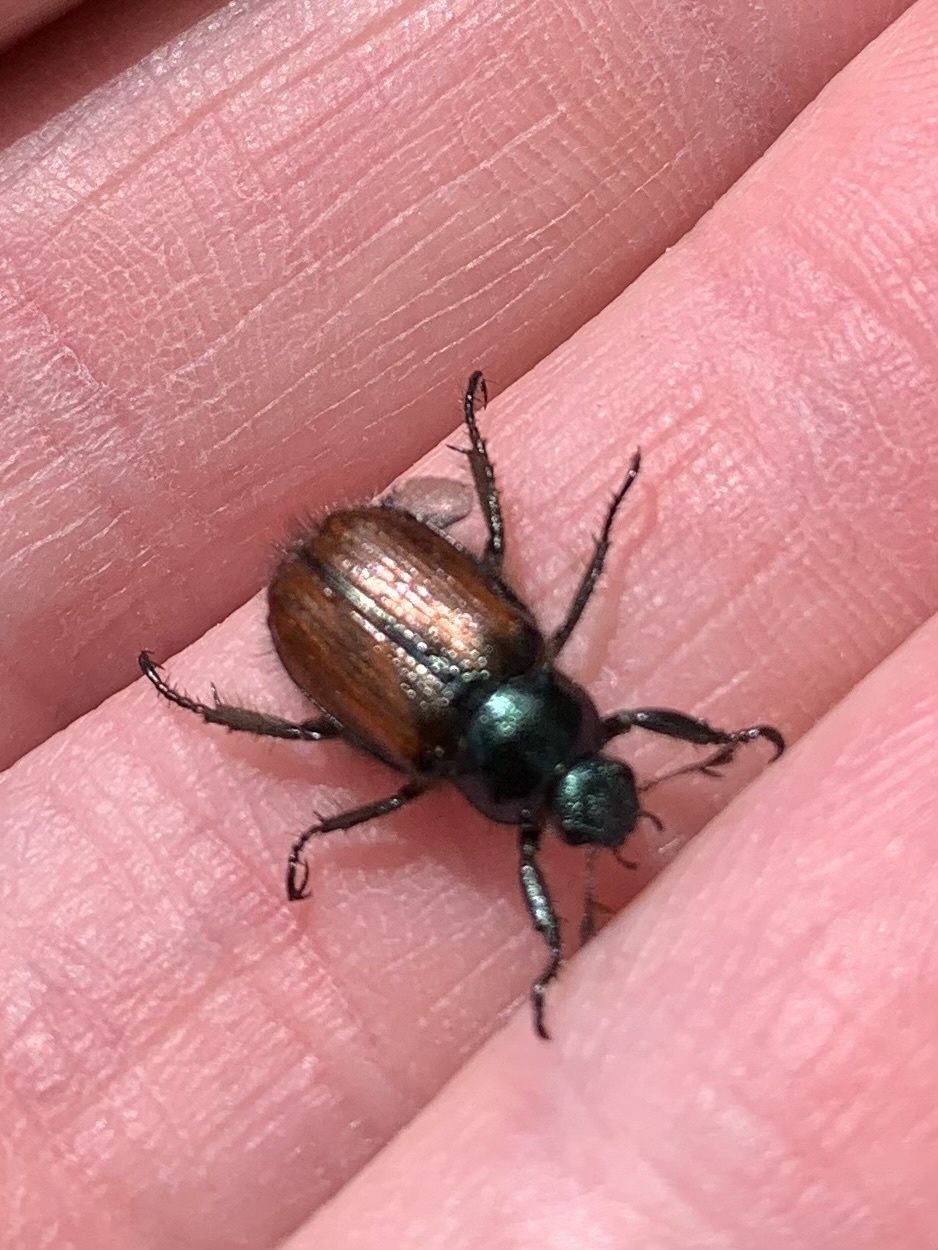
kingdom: Animalia
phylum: Arthropoda
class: Insecta
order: Coleoptera
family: Scarabaeidae
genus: Phyllopertha
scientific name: Phyllopertha horticola
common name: Garden chafer
